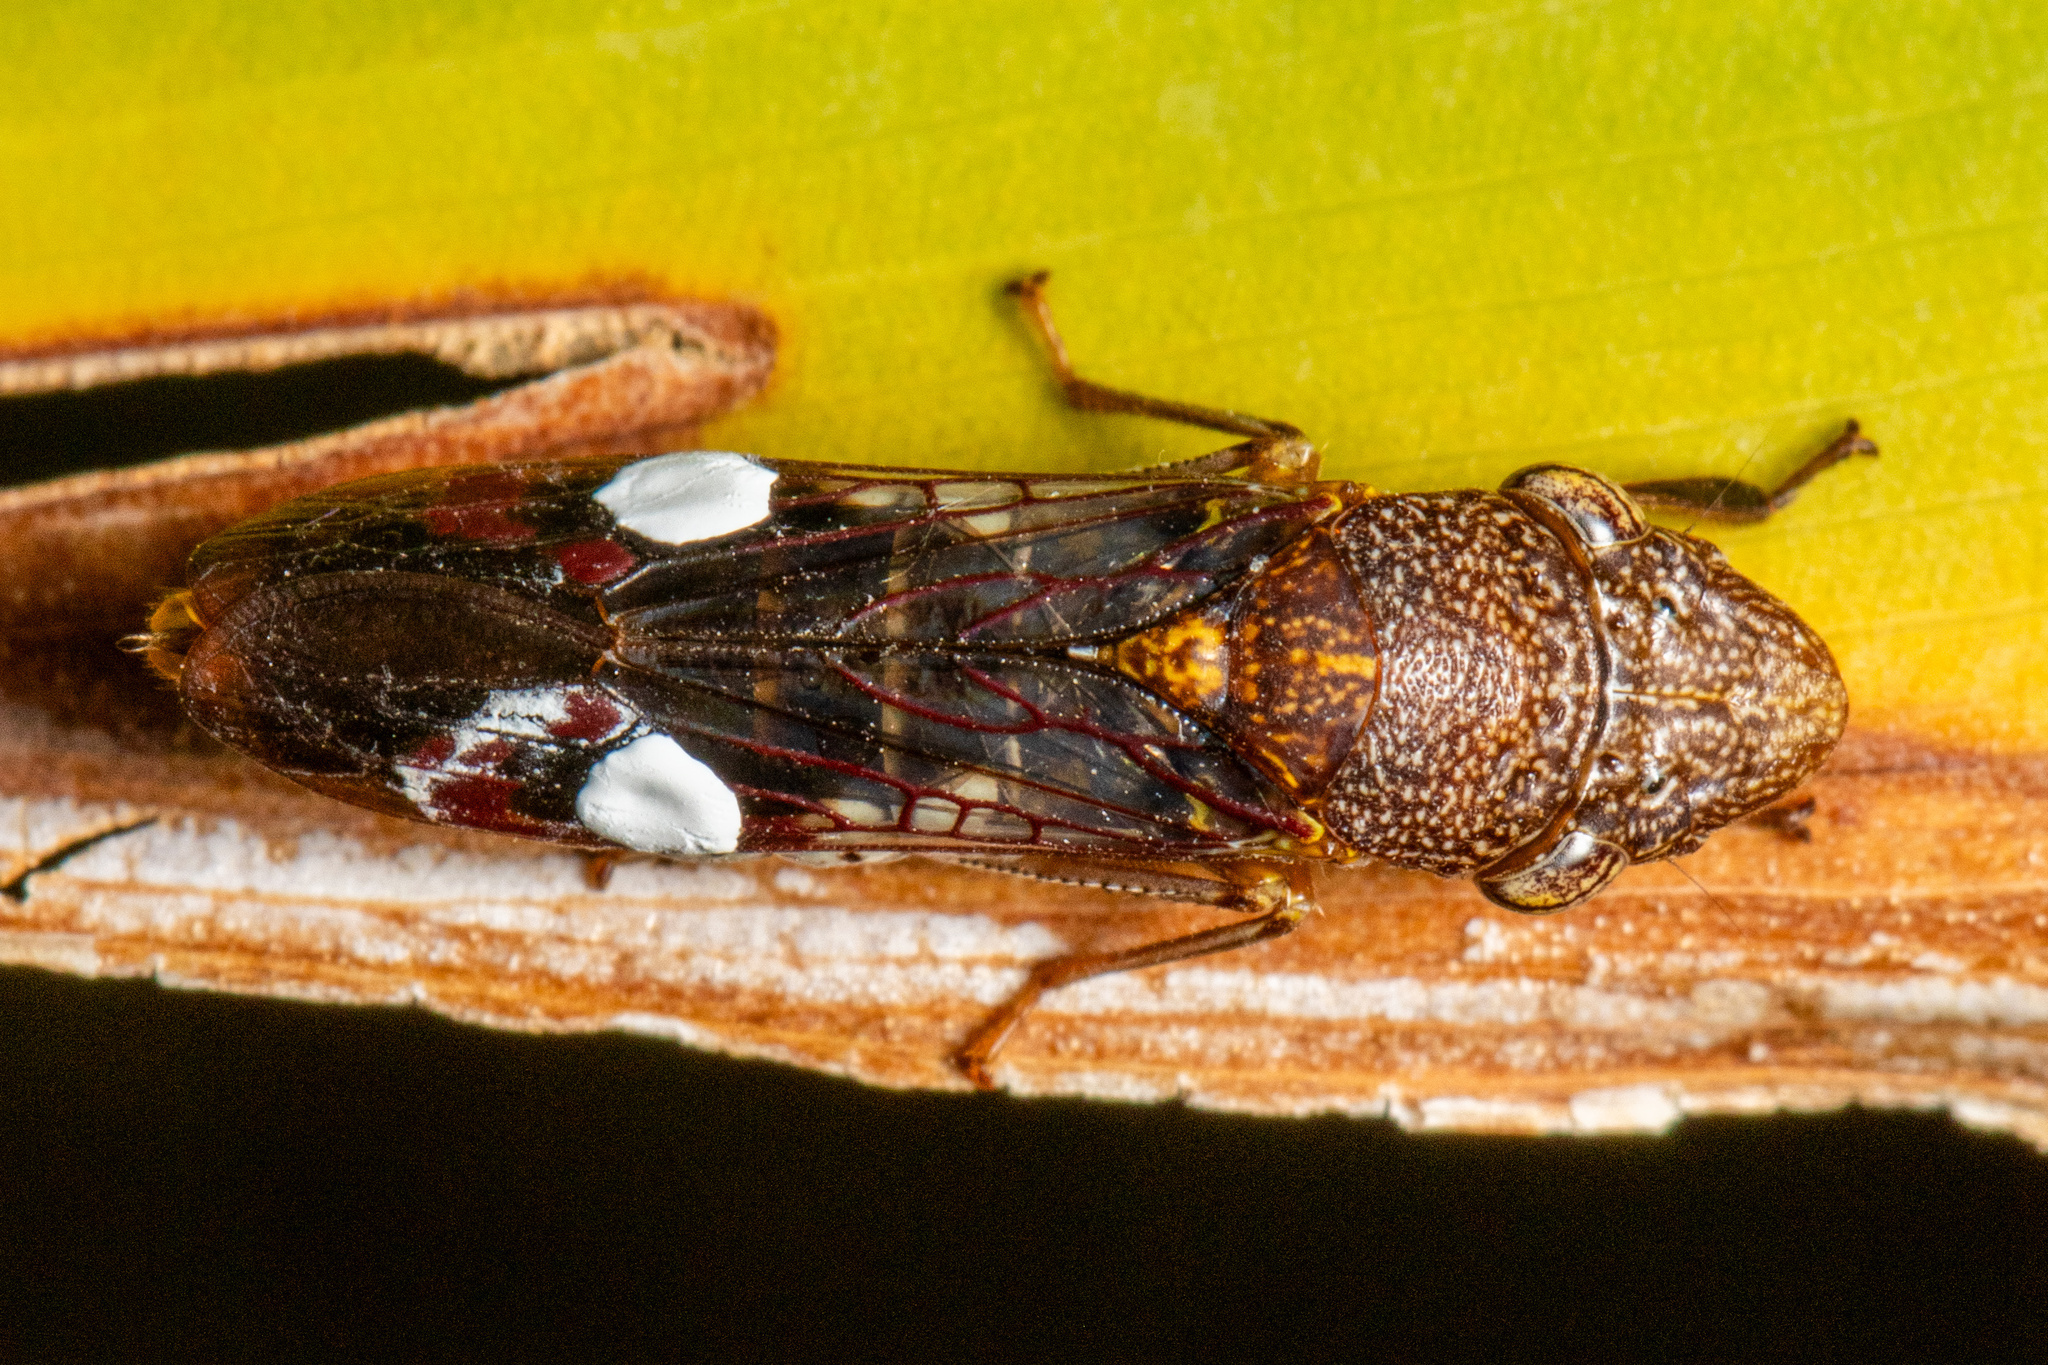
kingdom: Animalia
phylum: Arthropoda
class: Insecta
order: Hemiptera
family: Cicadellidae
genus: Homalodisca
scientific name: Homalodisca vitripennis
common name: Glassy-winged sharpshooter
